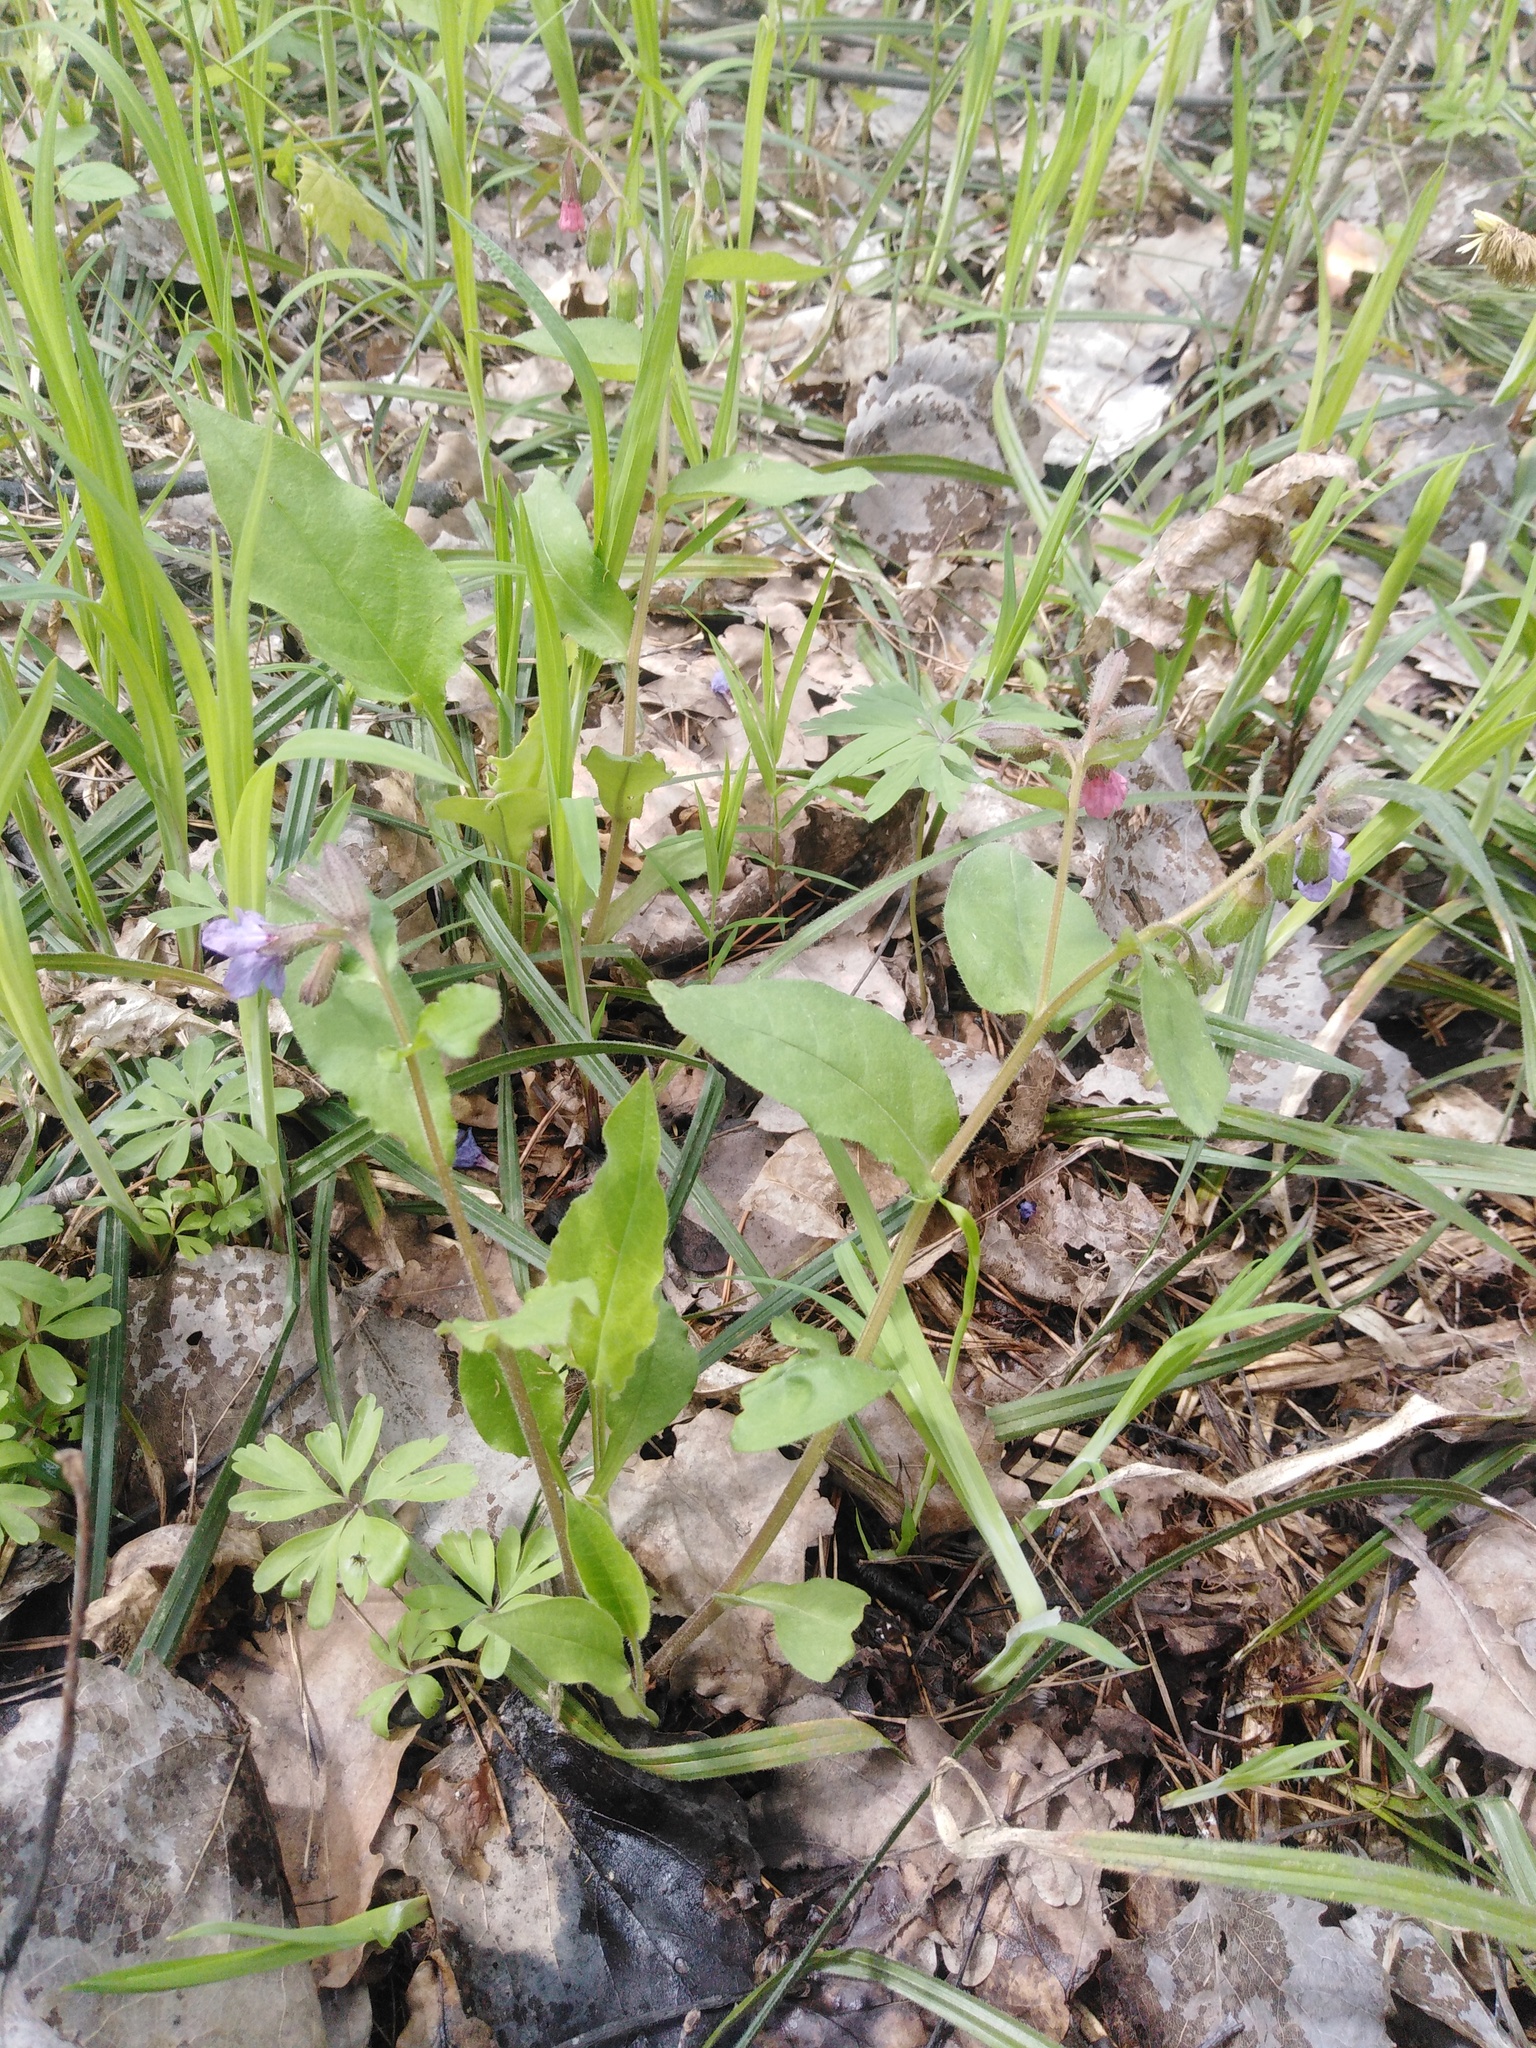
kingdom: Plantae
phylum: Tracheophyta
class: Magnoliopsida
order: Boraginales
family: Boraginaceae
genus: Pulmonaria
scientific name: Pulmonaria obscura
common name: Suffolk lungwort
